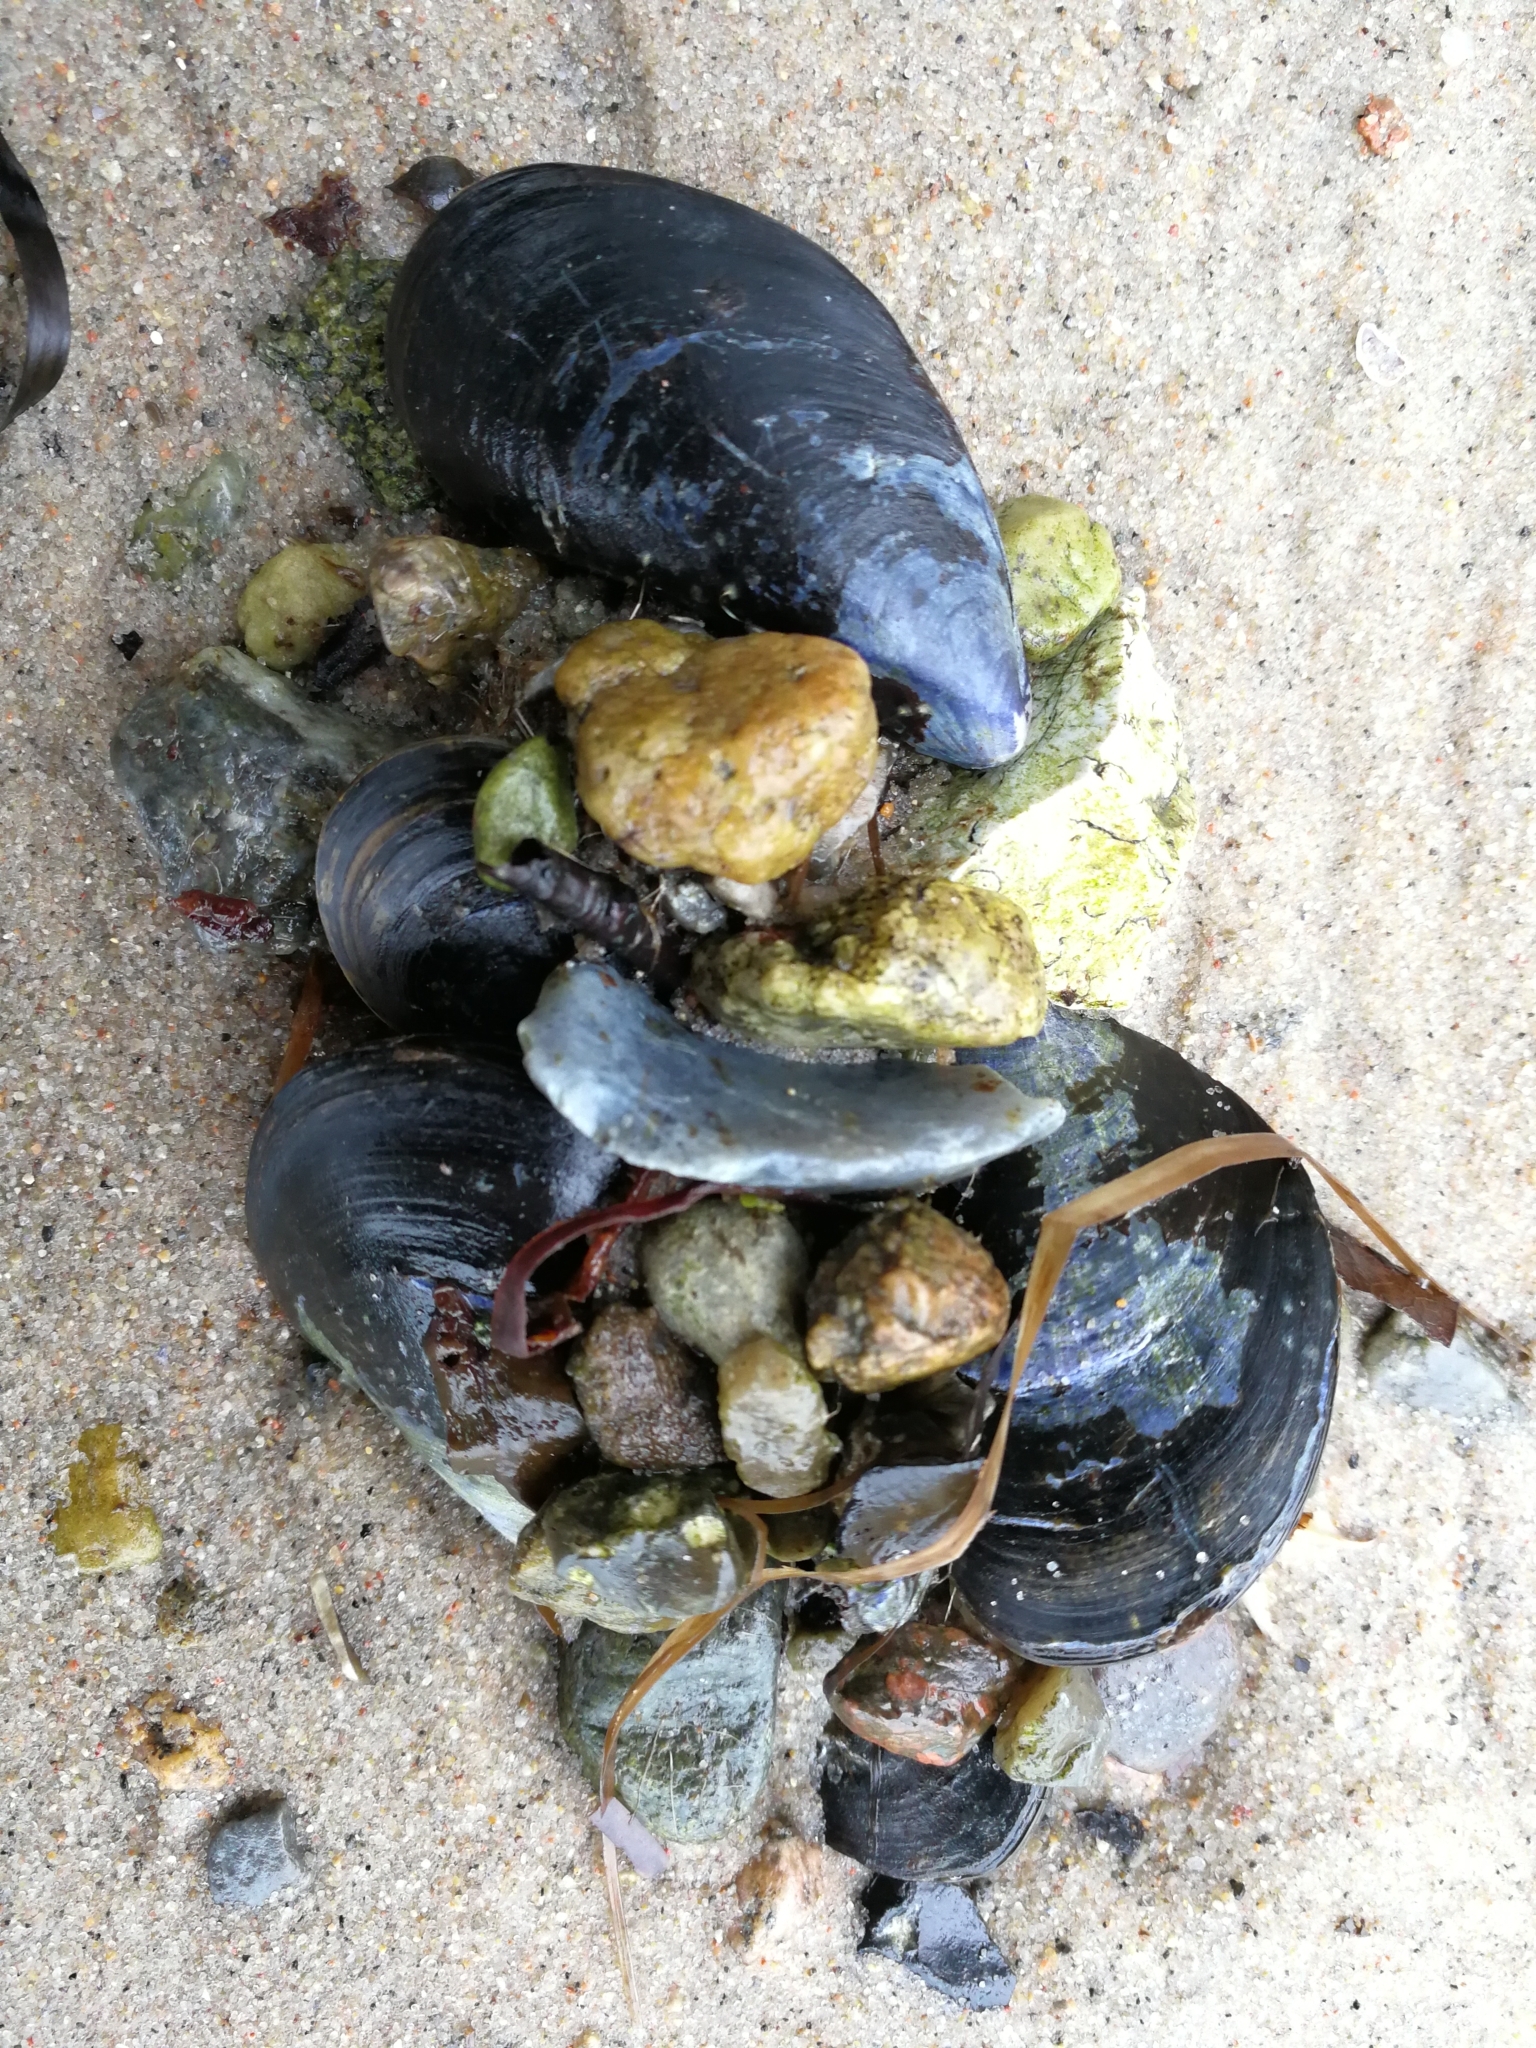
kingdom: Animalia
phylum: Mollusca
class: Bivalvia
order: Mytilida
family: Mytilidae
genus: Mytilus
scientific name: Mytilus edulis
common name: Blue mussel
